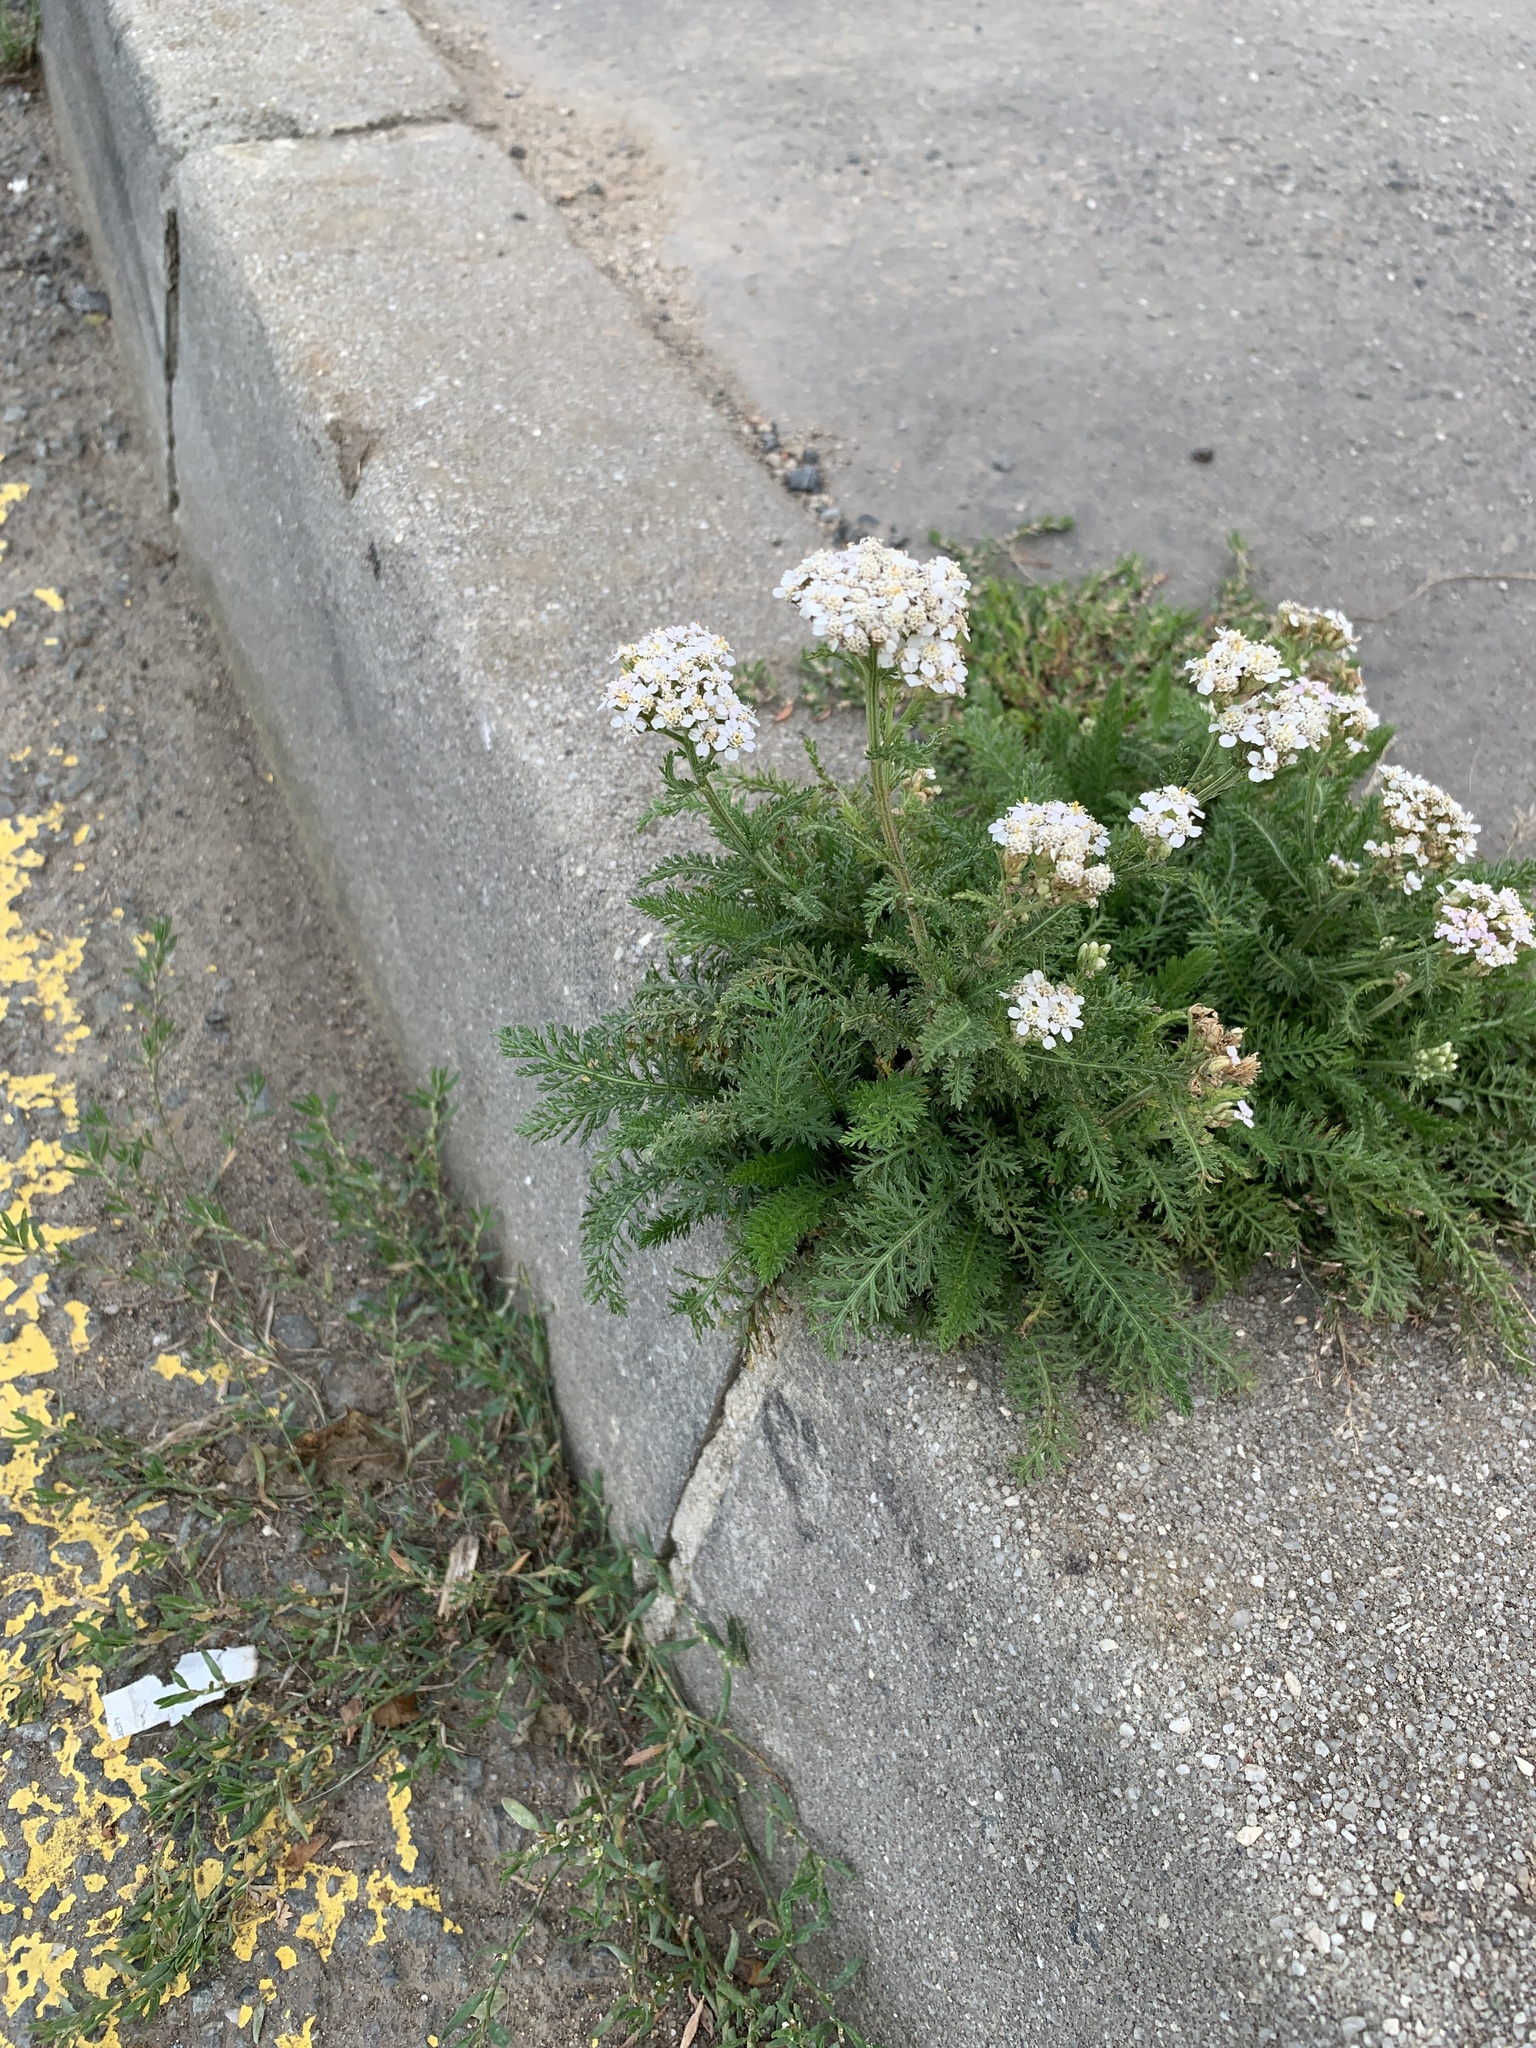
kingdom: Plantae
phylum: Tracheophyta
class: Magnoliopsida
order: Asterales
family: Asteraceae
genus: Achillea
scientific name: Achillea millefolium
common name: Yarrow
